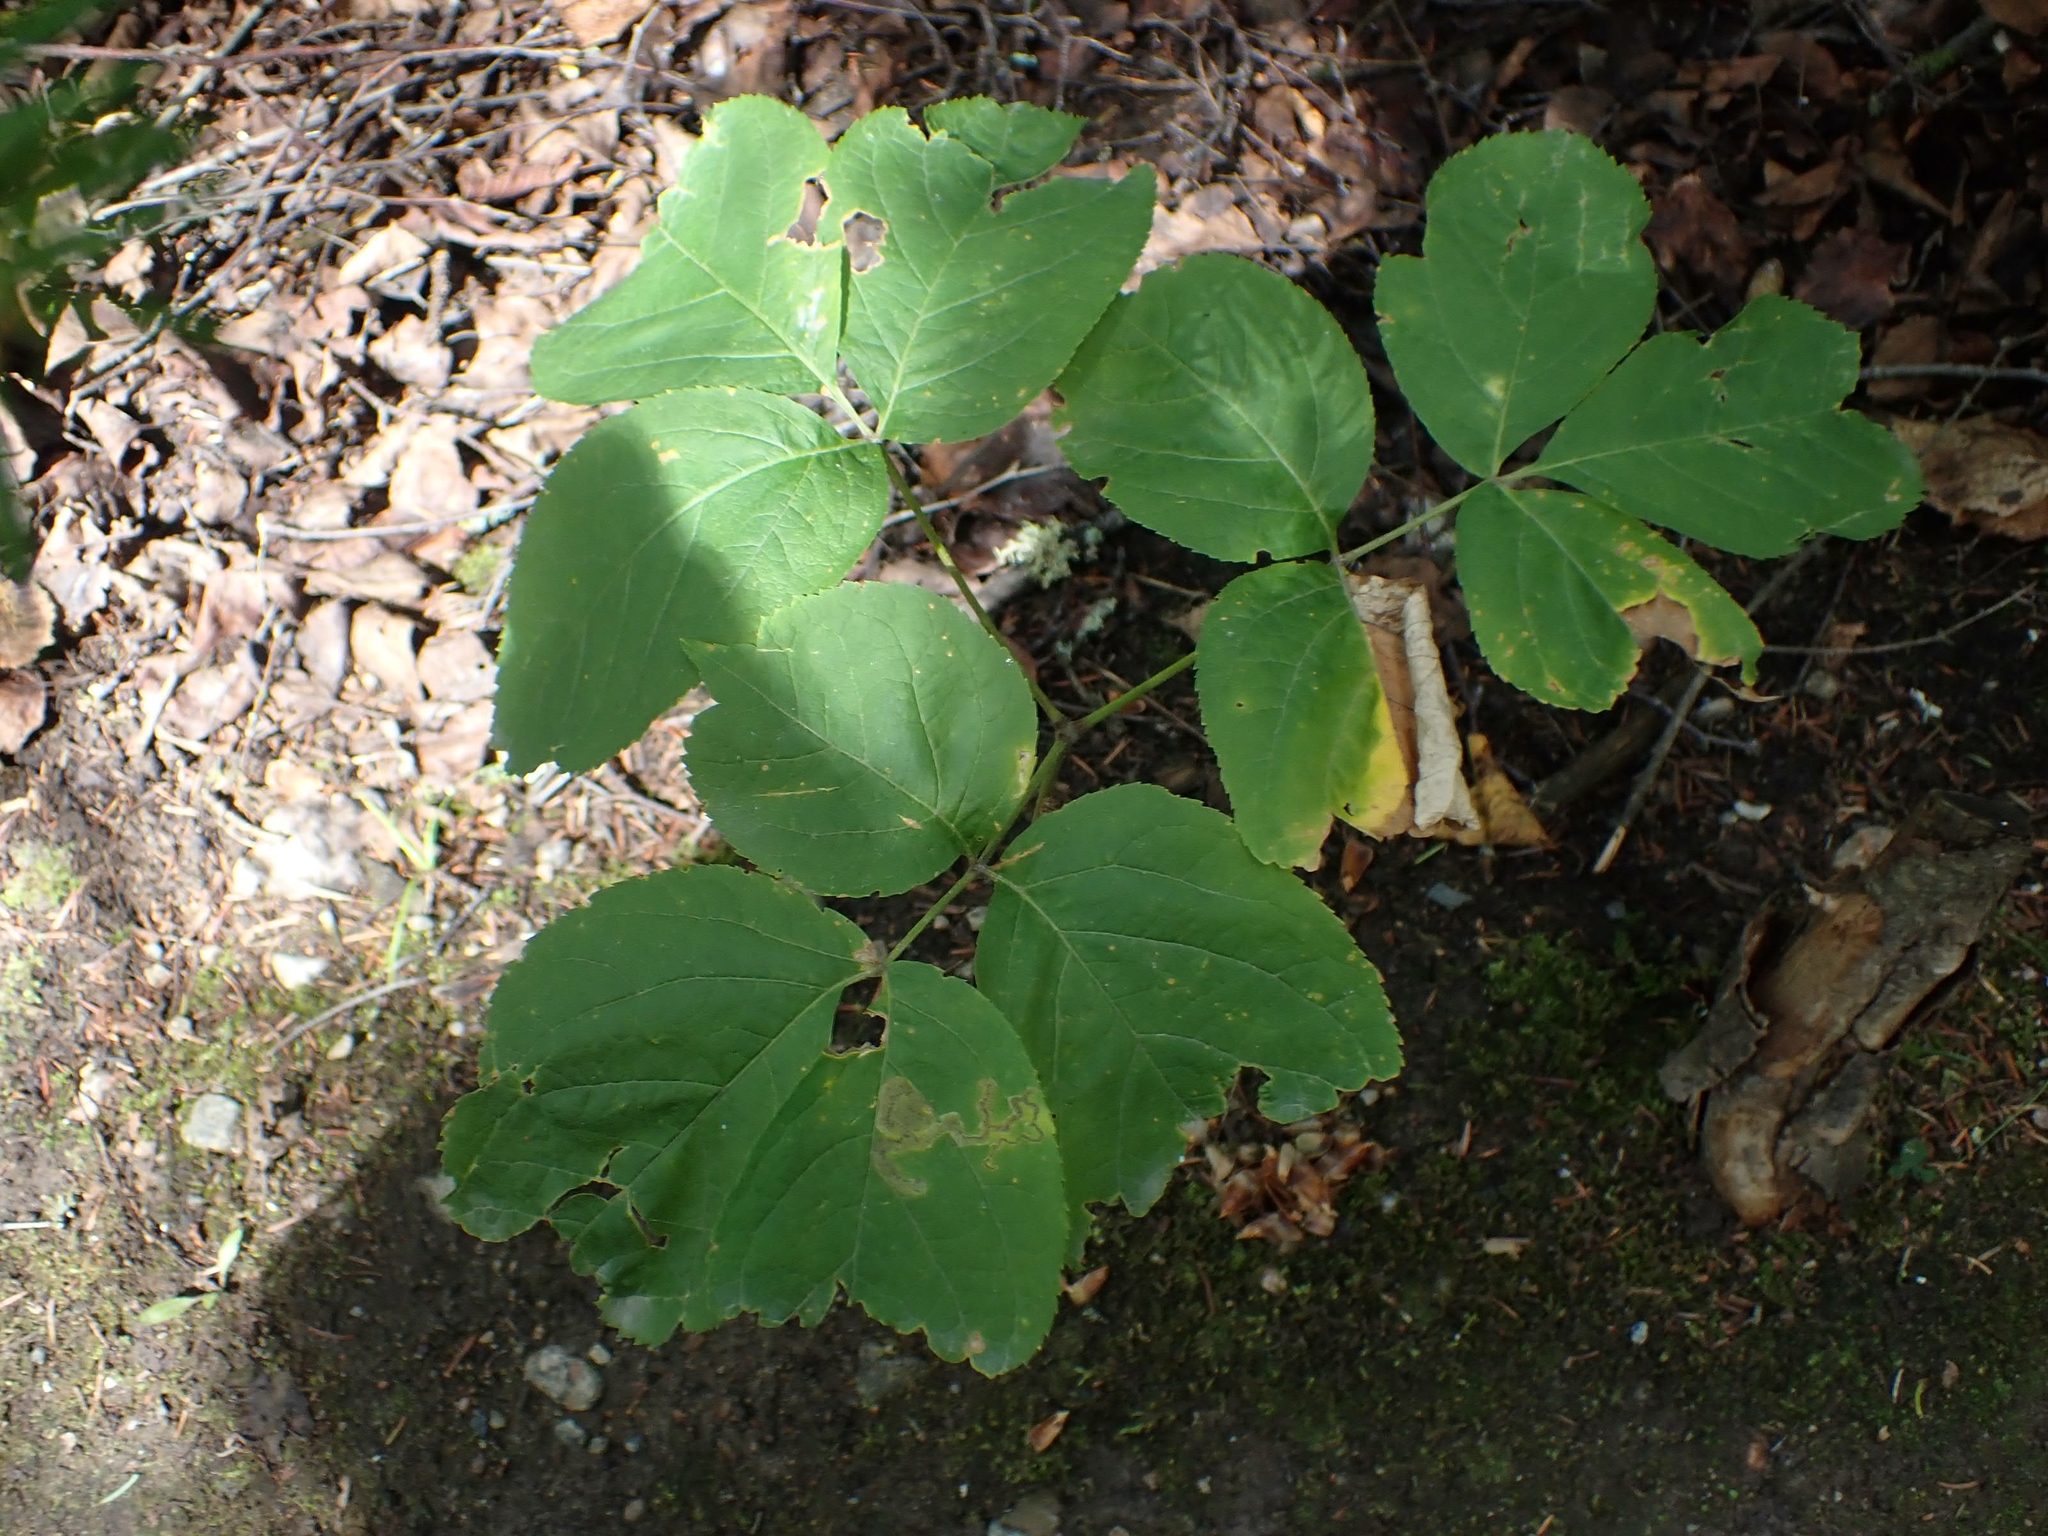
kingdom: Plantae
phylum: Tracheophyta
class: Magnoliopsida
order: Apiales
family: Araliaceae
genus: Aralia
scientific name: Aralia nudicaulis
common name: Wild sarsaparilla
